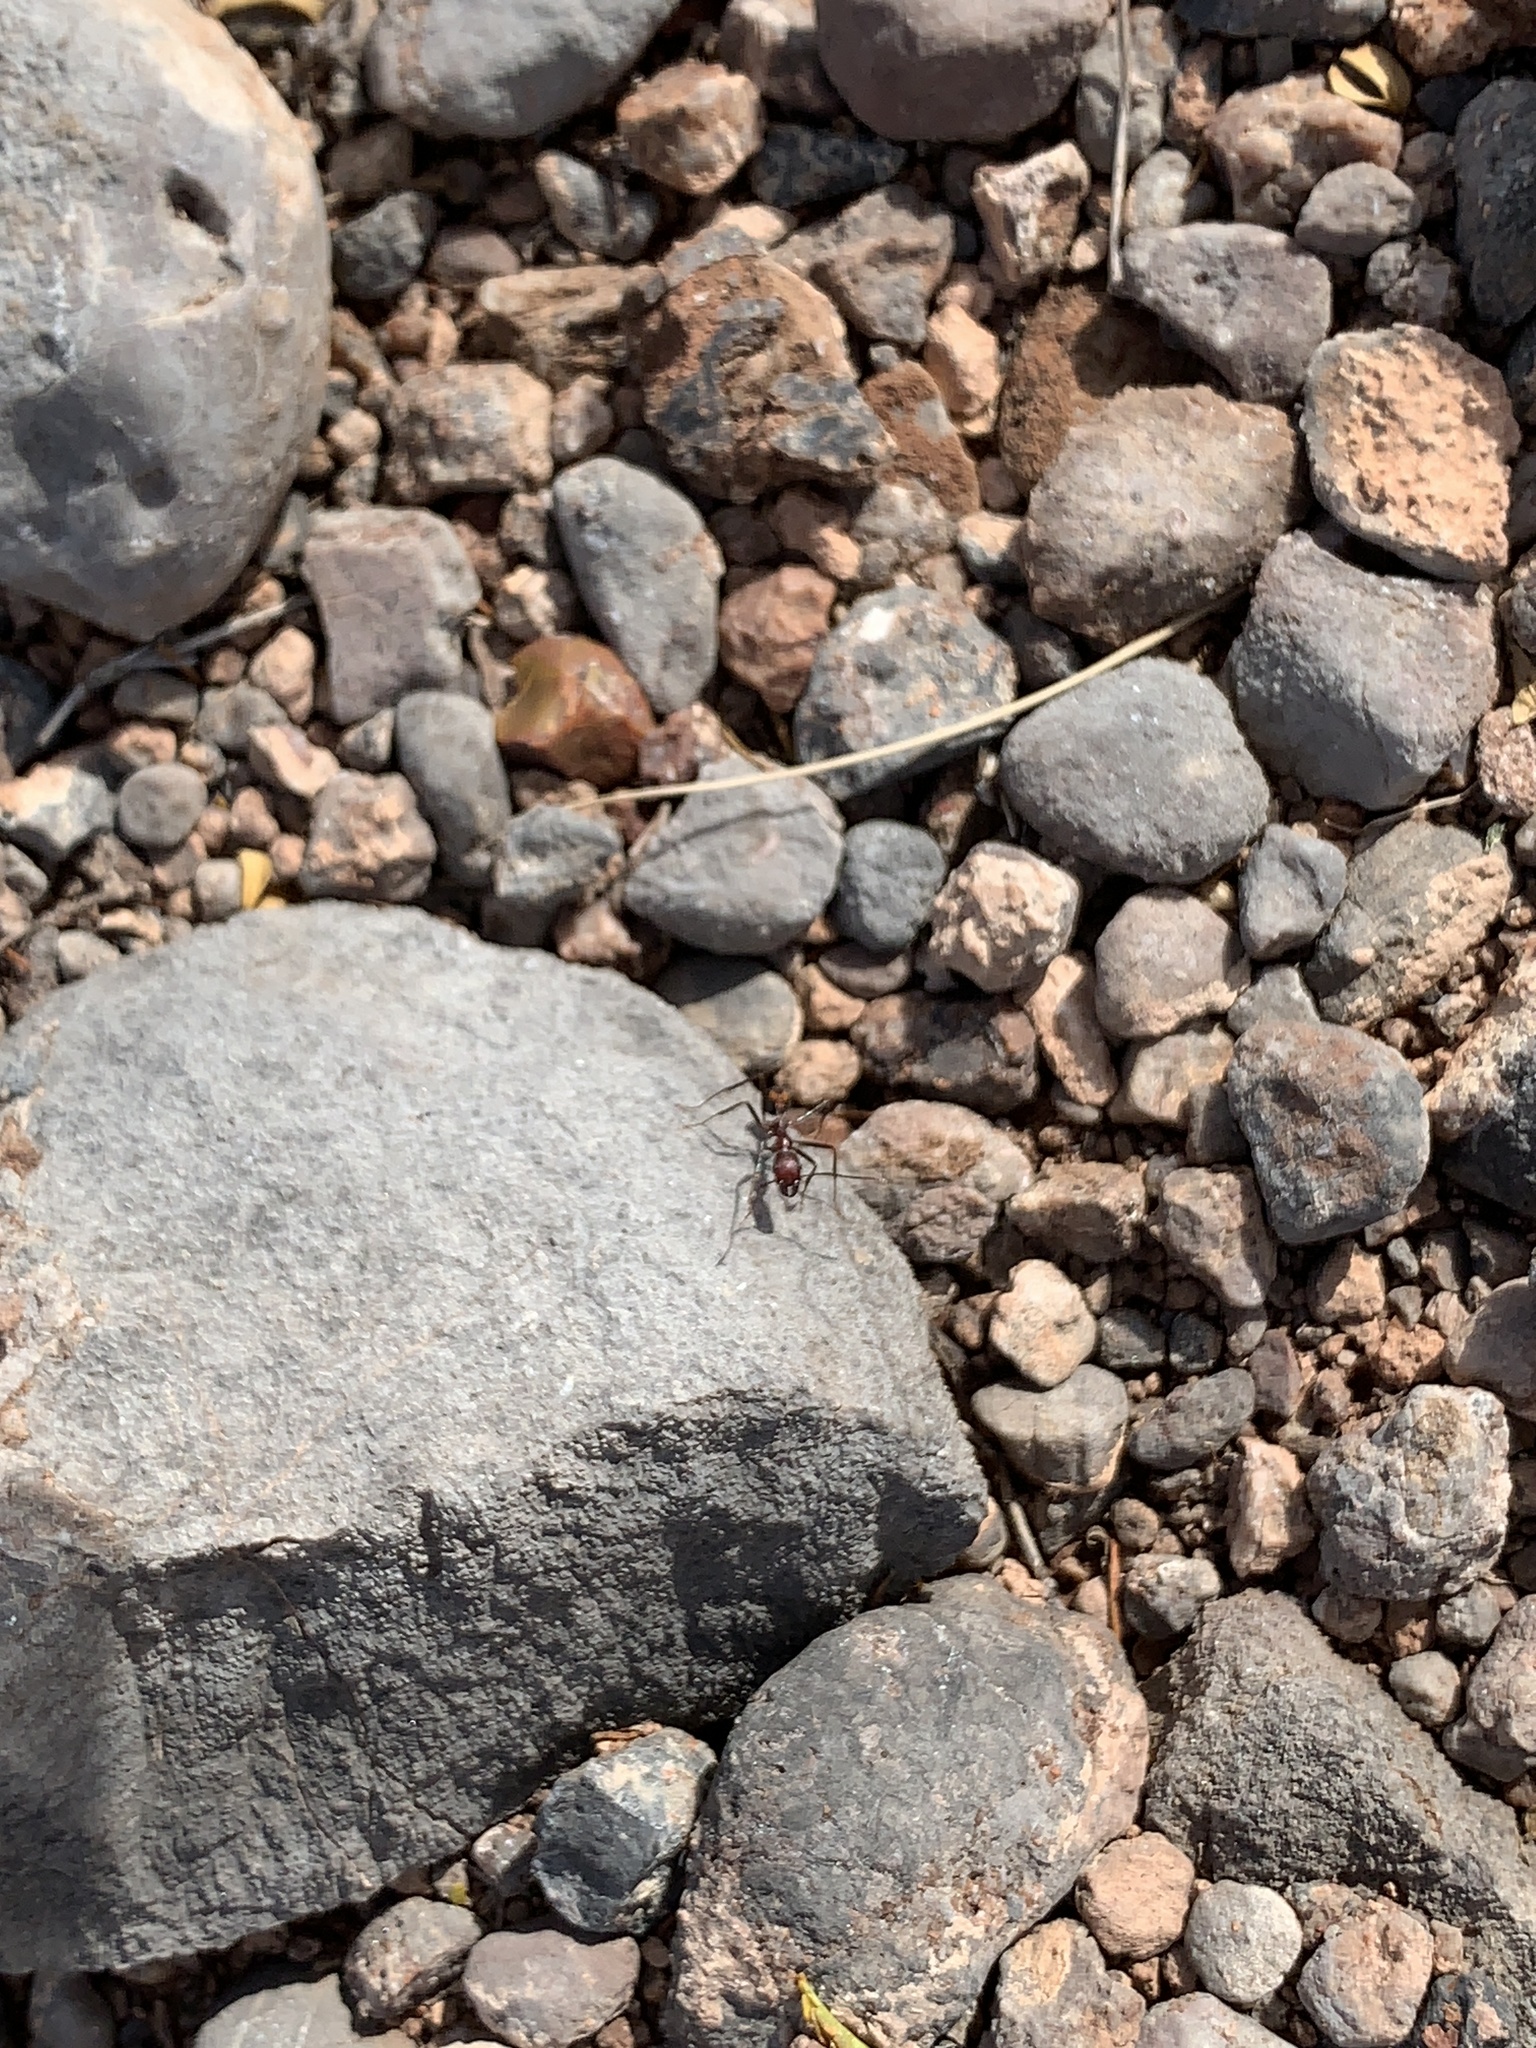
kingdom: Animalia
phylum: Arthropoda
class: Insecta
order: Hymenoptera
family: Formicidae
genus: Novomessor
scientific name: Novomessor cockerelli
